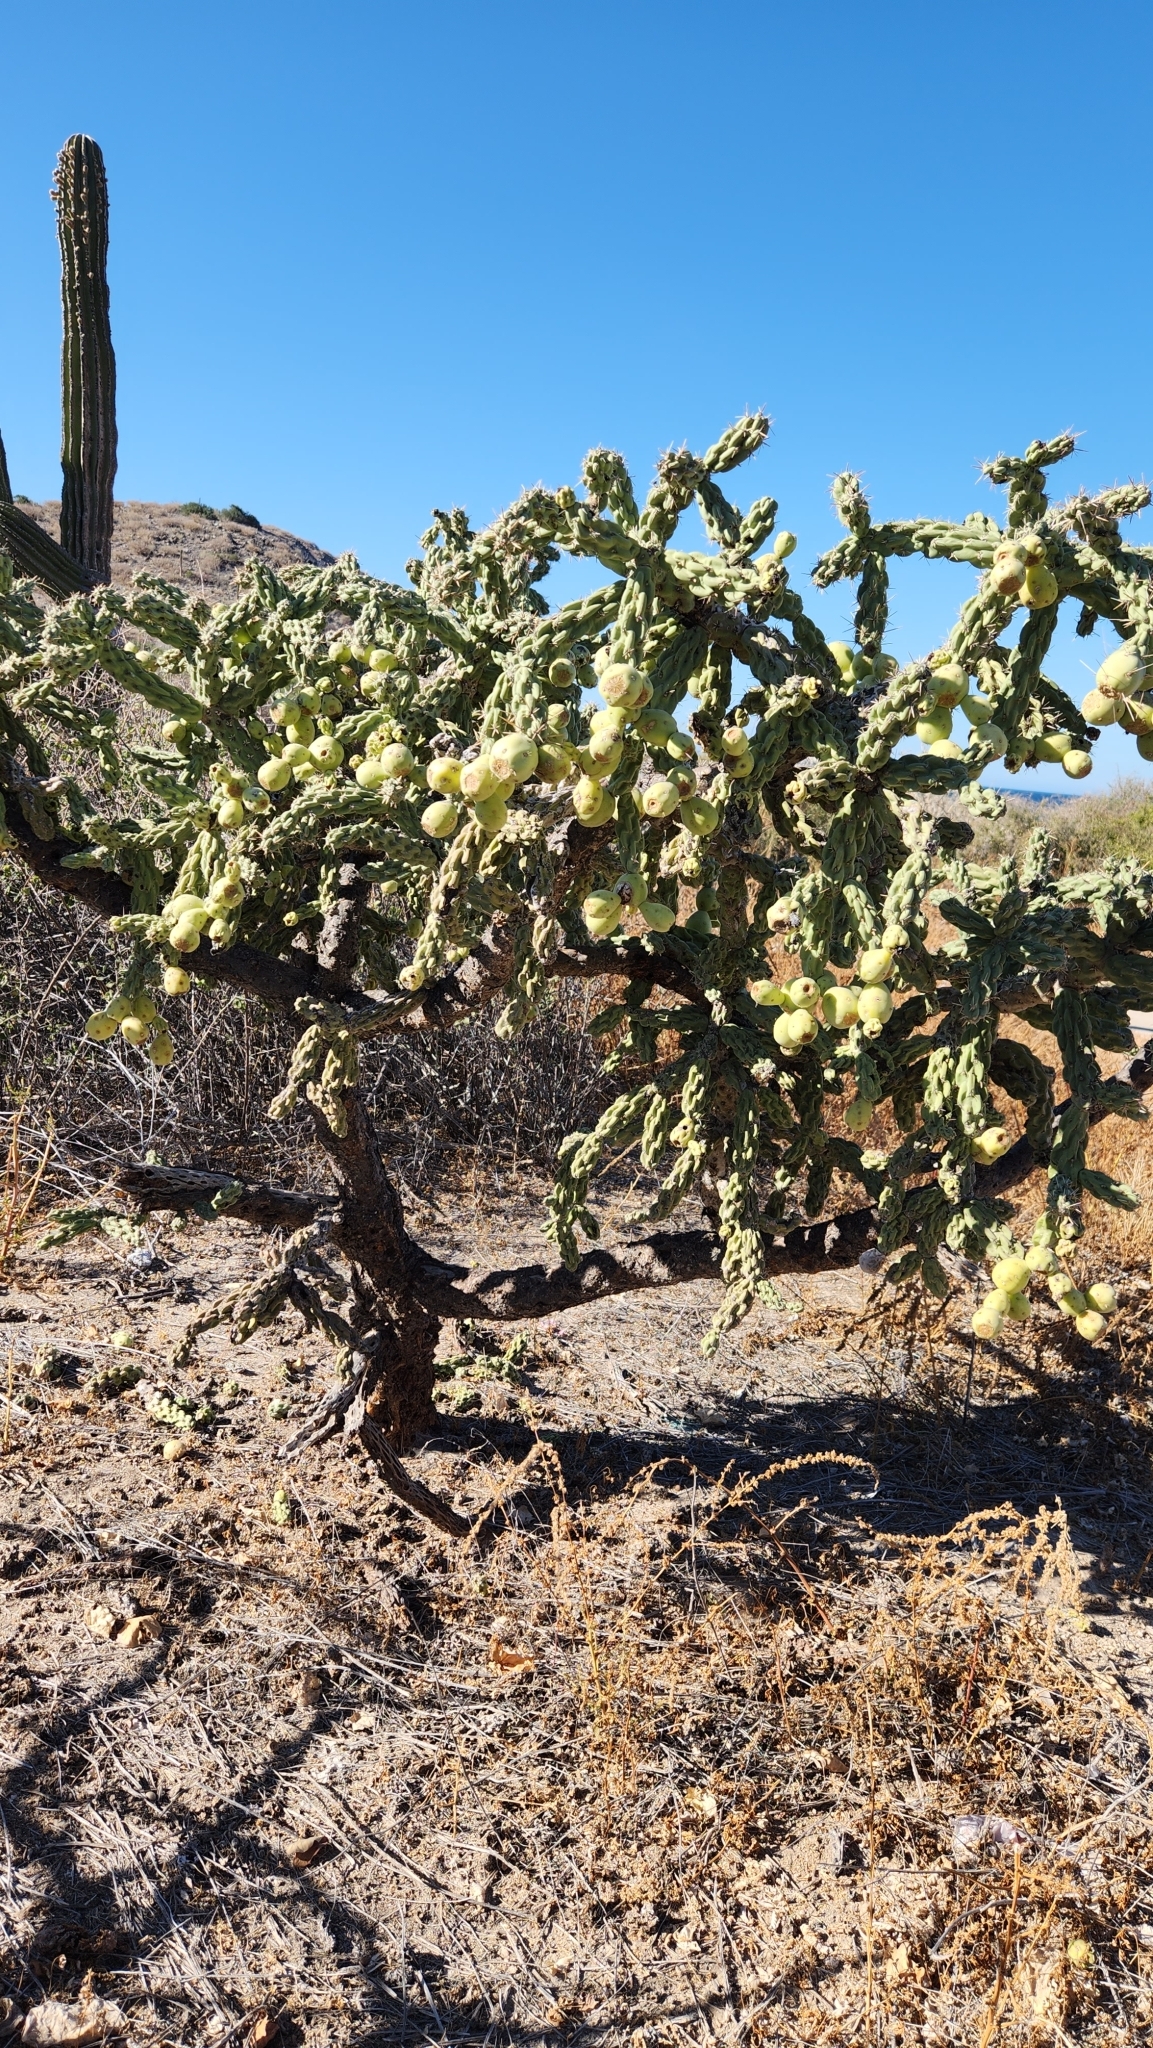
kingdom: Plantae
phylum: Tracheophyta
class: Magnoliopsida
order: Caryophyllales
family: Cactaceae
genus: Cylindropuntia
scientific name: Cylindropuntia cholla
